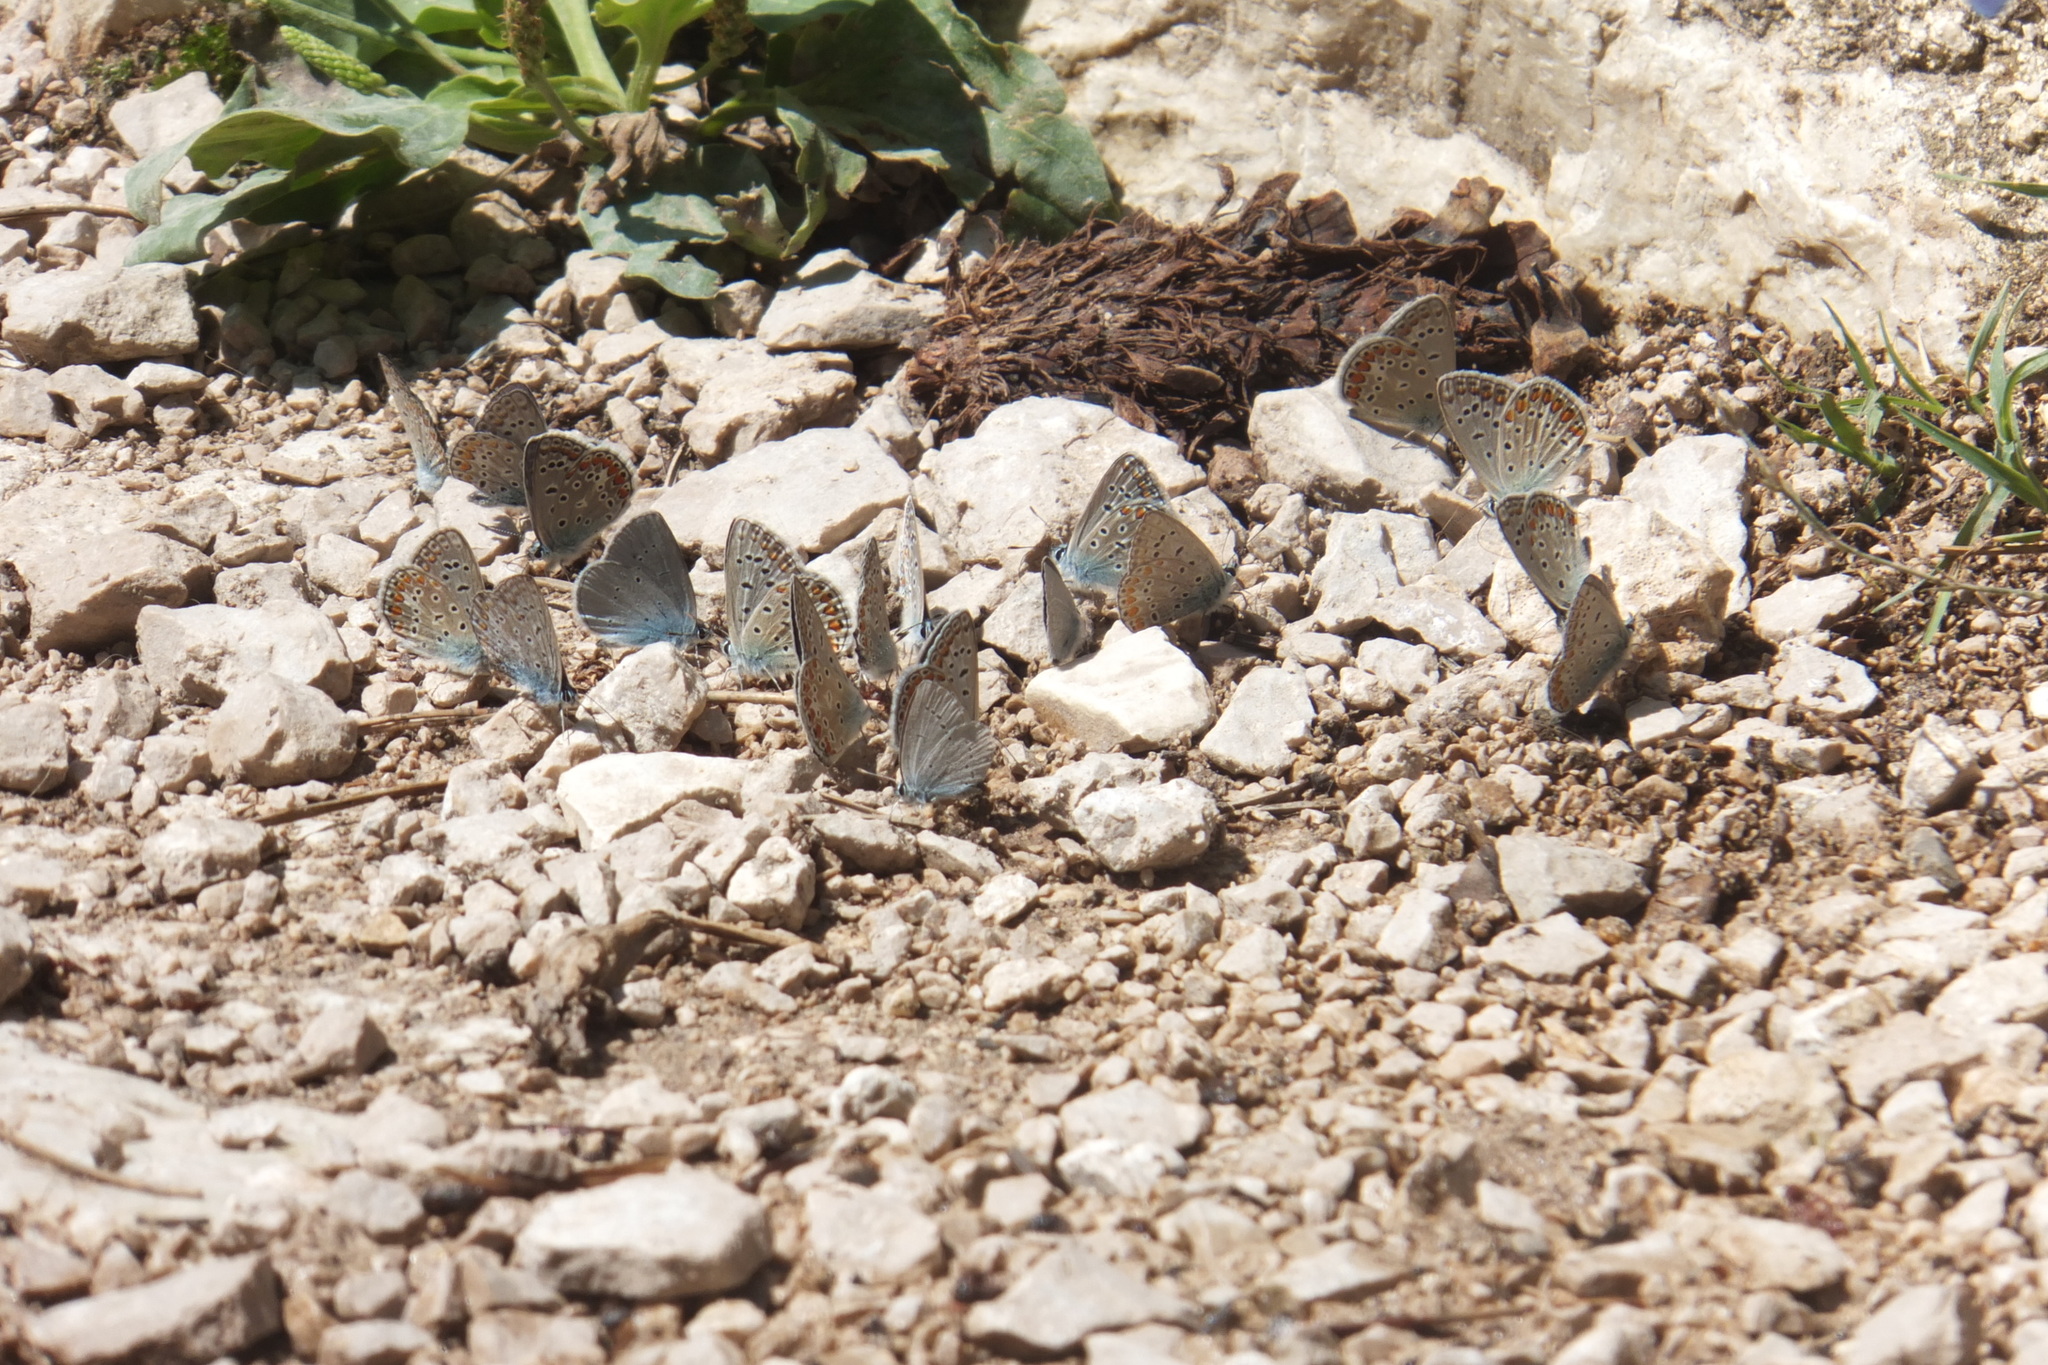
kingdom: Animalia
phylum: Arthropoda
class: Insecta
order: Lepidoptera
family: Lycaenidae
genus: Polyommatus
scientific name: Polyommatus icarus
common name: Common blue
